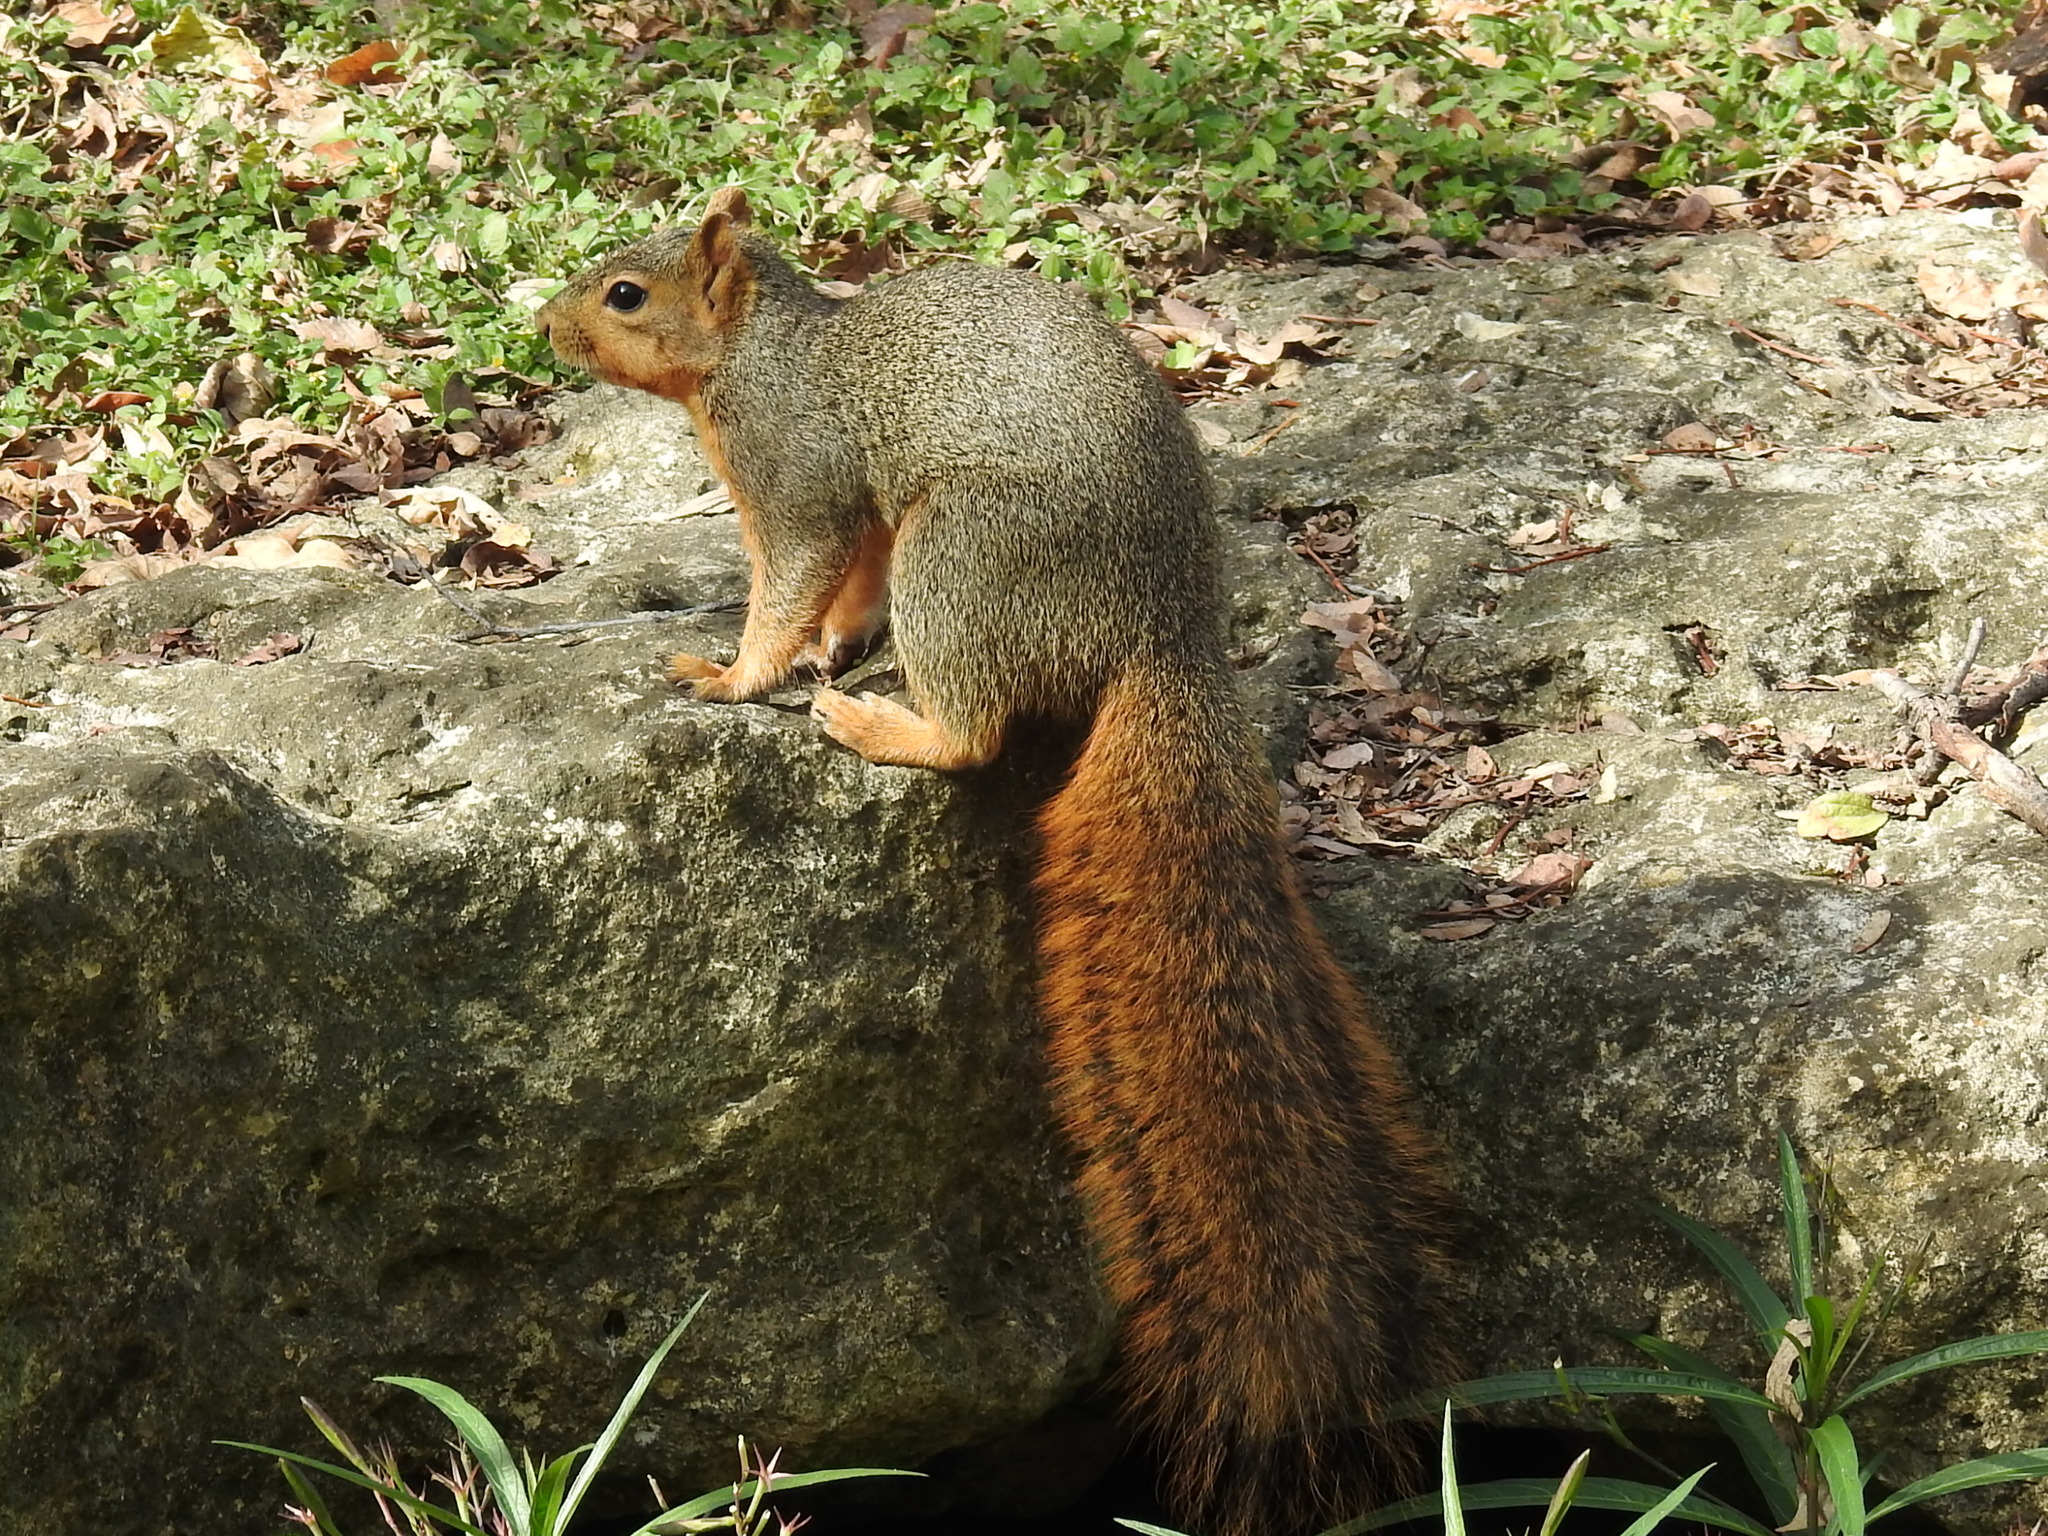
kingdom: Animalia
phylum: Chordata
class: Mammalia
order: Rodentia
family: Sciuridae
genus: Sciurus
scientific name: Sciurus niger
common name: Fox squirrel
